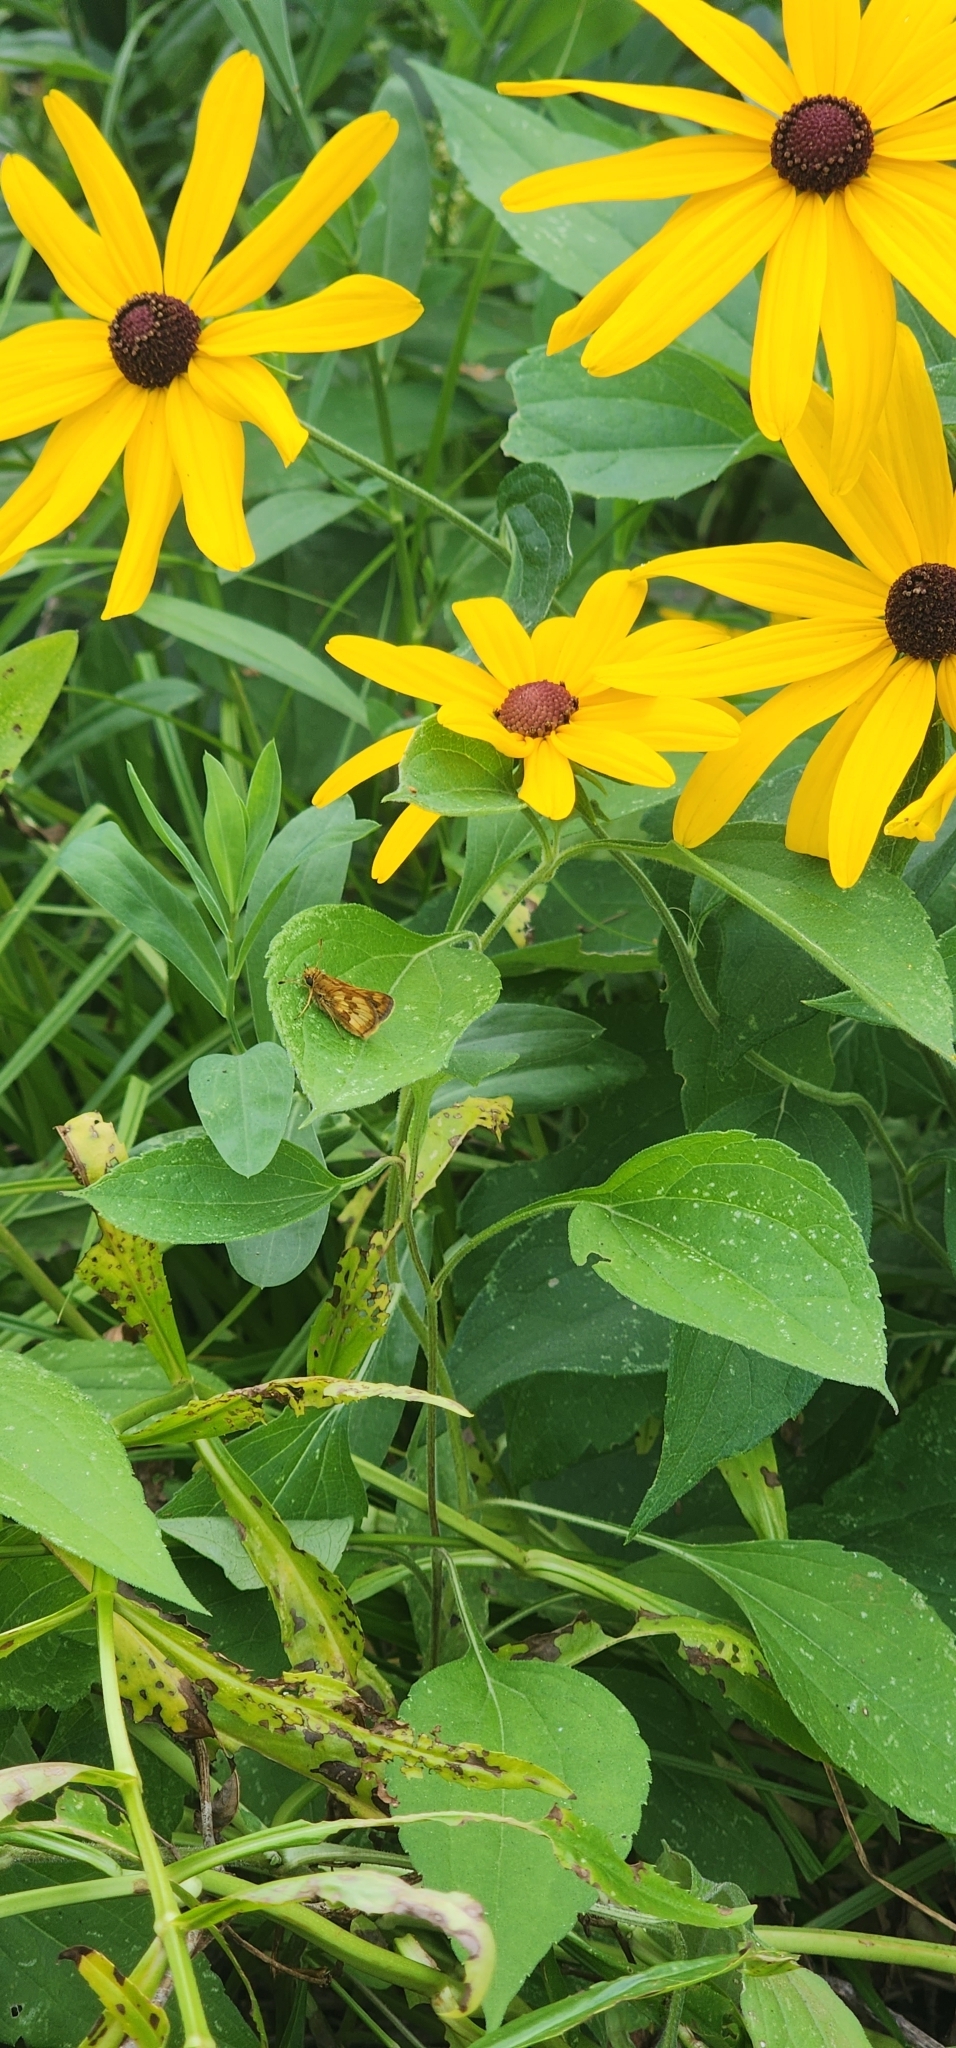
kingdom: Animalia
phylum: Arthropoda
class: Insecta
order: Lepidoptera
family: Hesperiidae
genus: Polites
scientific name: Polites coras
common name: Peck's skipper
